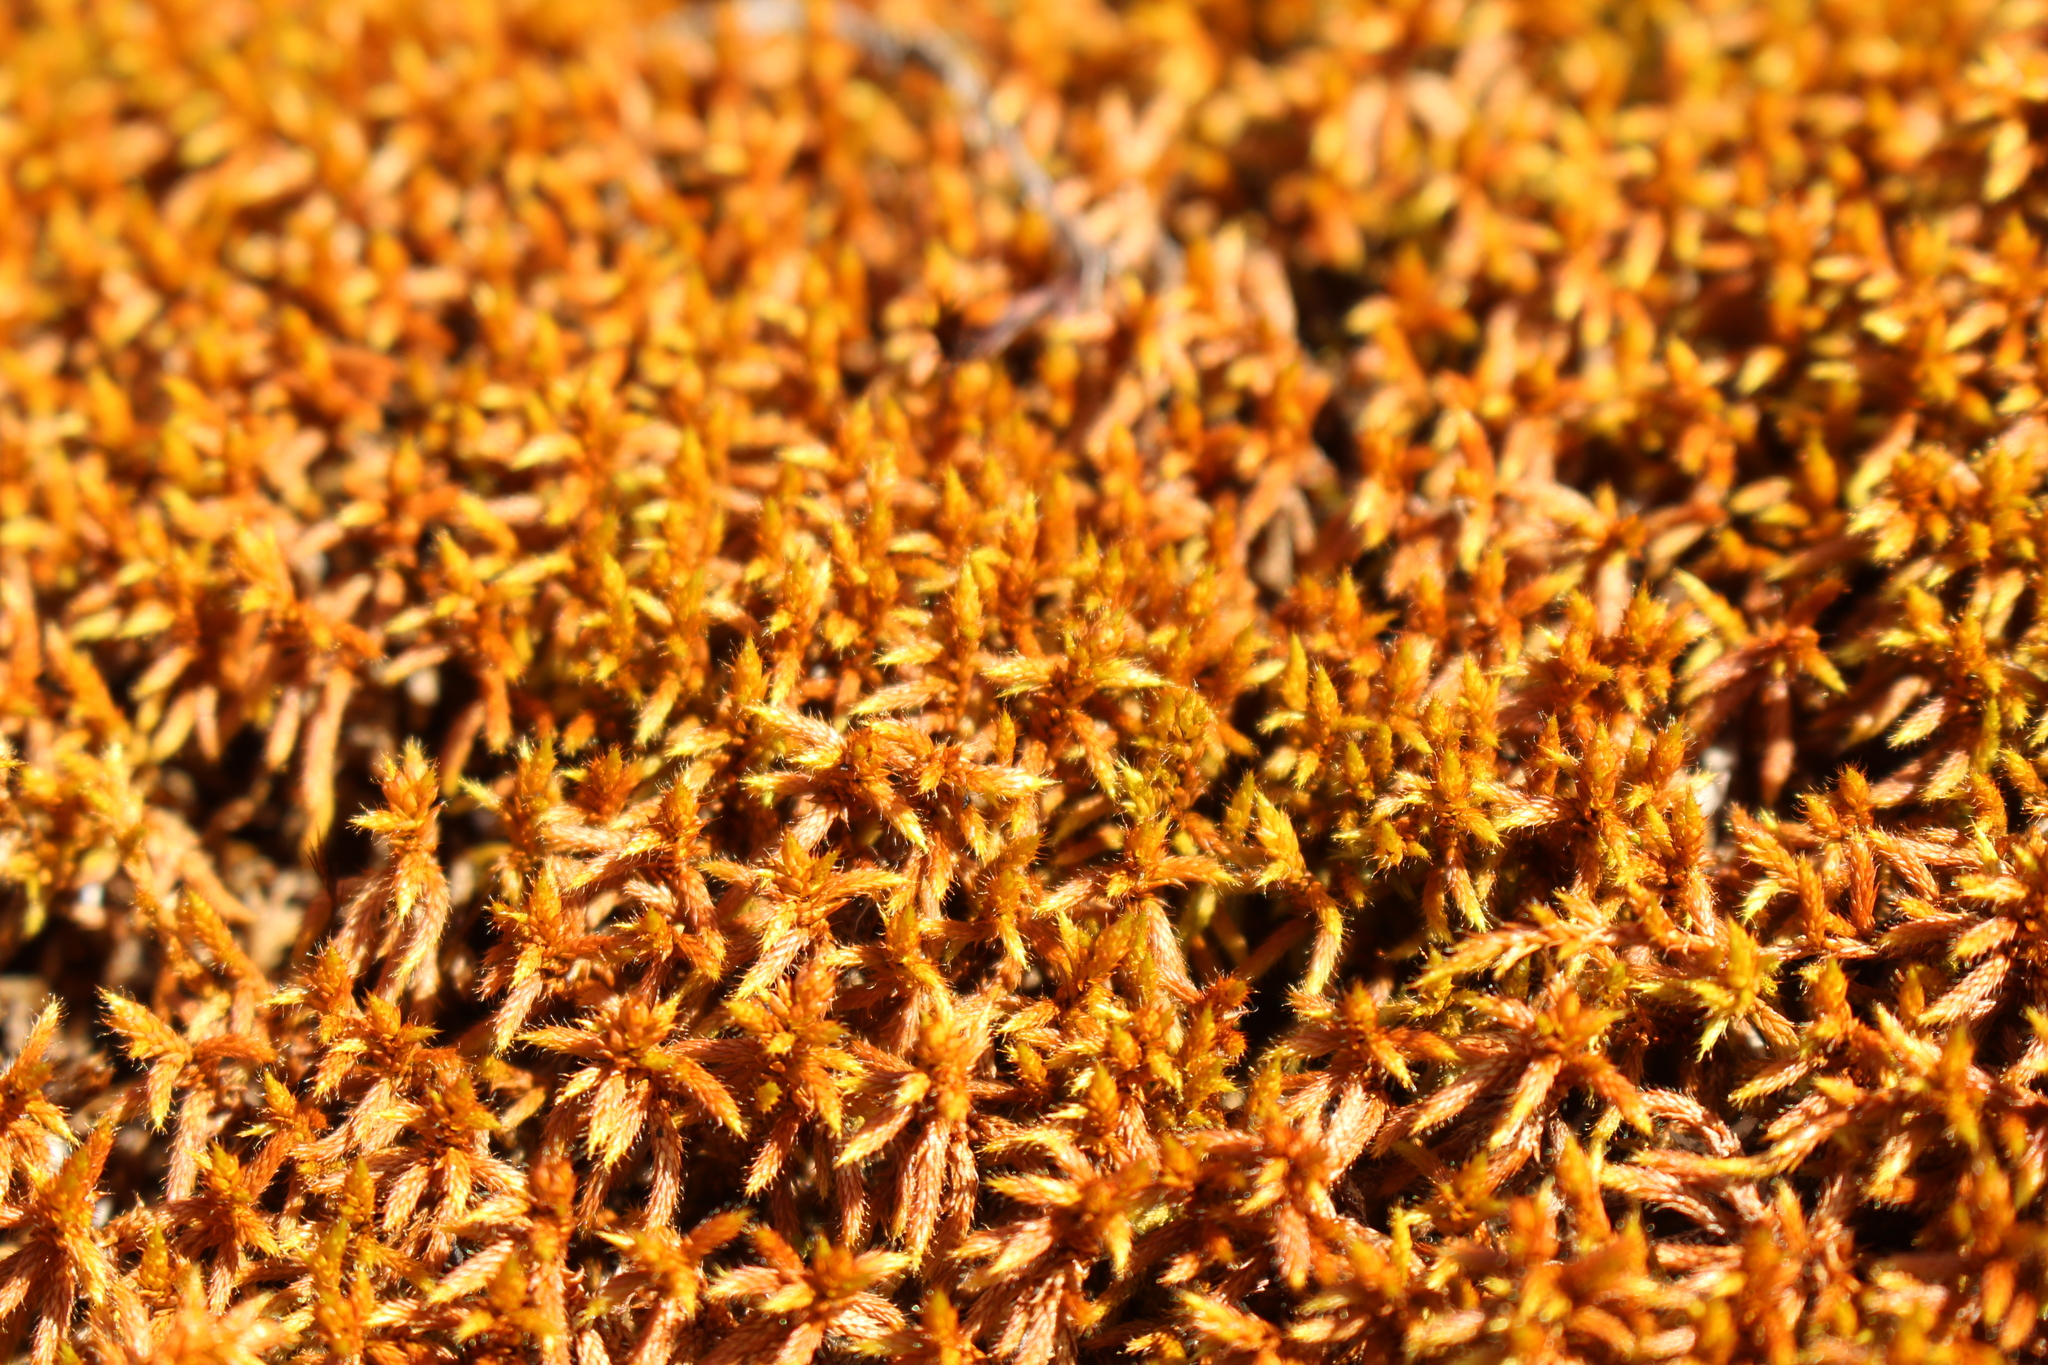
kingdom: Plantae
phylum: Bryophyta
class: Bryopsida
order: Hedwigiales
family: Hedwigiaceae
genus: Rhacocarpus
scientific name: Rhacocarpus purpurascens
